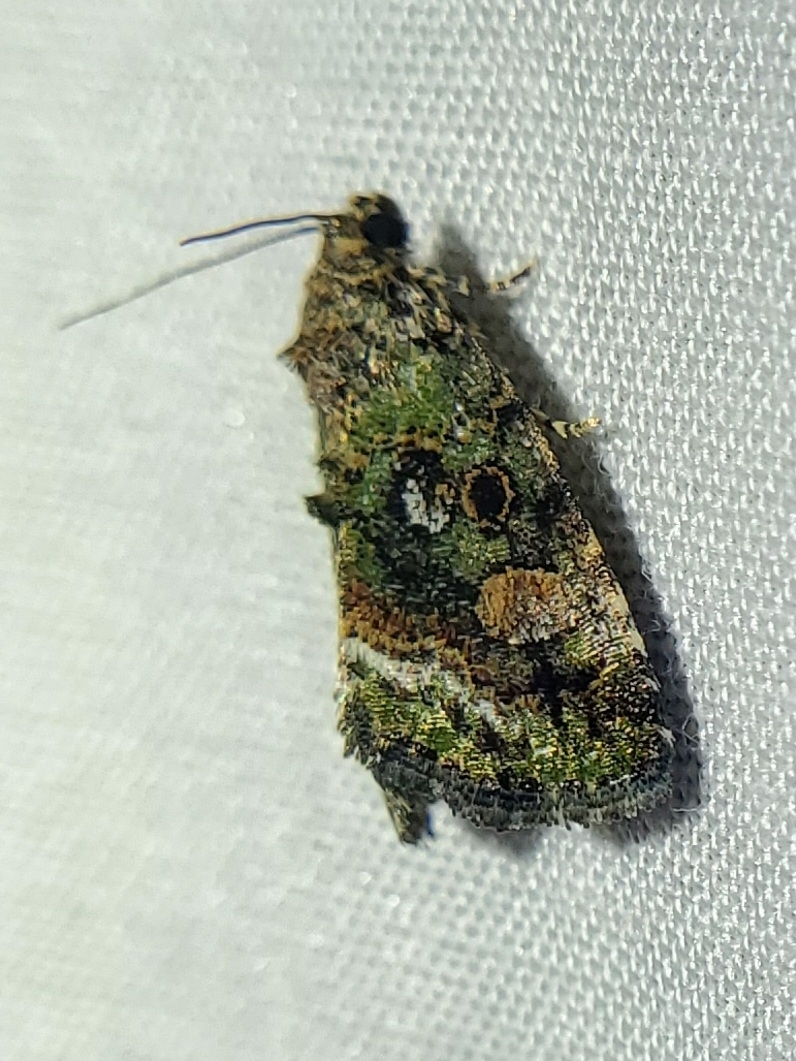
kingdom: Animalia
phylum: Arthropoda
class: Insecta
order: Lepidoptera
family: Noctuidae
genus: Lithacodia
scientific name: Lithacodia musta
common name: Small mossy glyph
